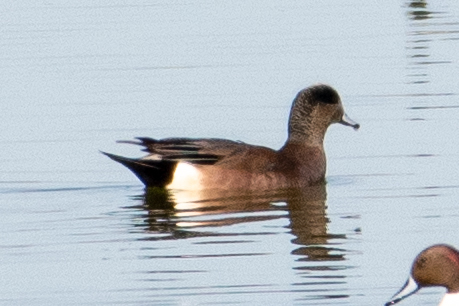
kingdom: Animalia
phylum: Chordata
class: Aves
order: Anseriformes
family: Anatidae
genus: Mareca
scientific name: Mareca americana
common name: American wigeon
